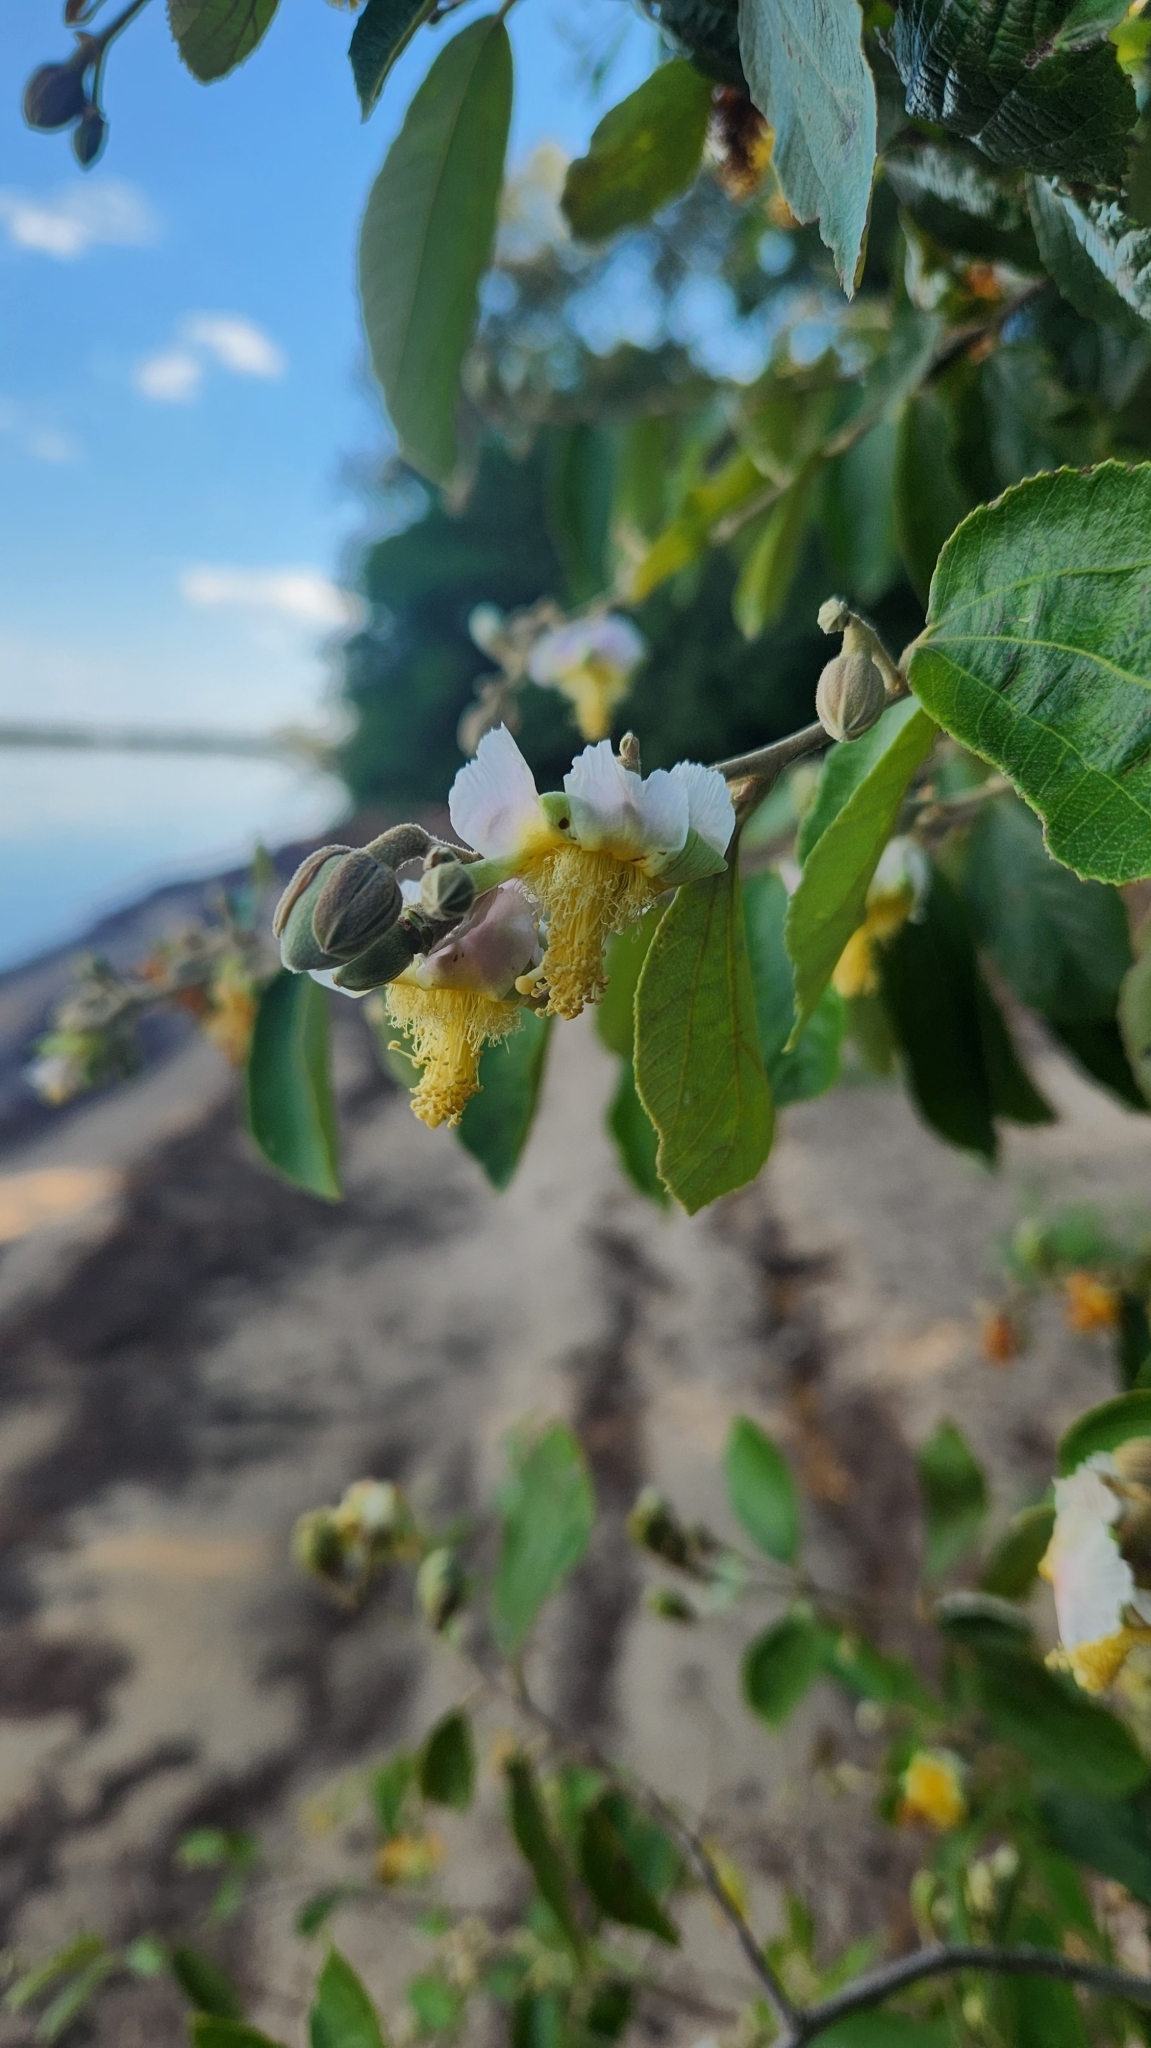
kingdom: Plantae
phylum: Tracheophyta
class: Magnoliopsida
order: Malvales
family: Malvaceae
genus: Luehea
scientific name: Luehea divaricata
